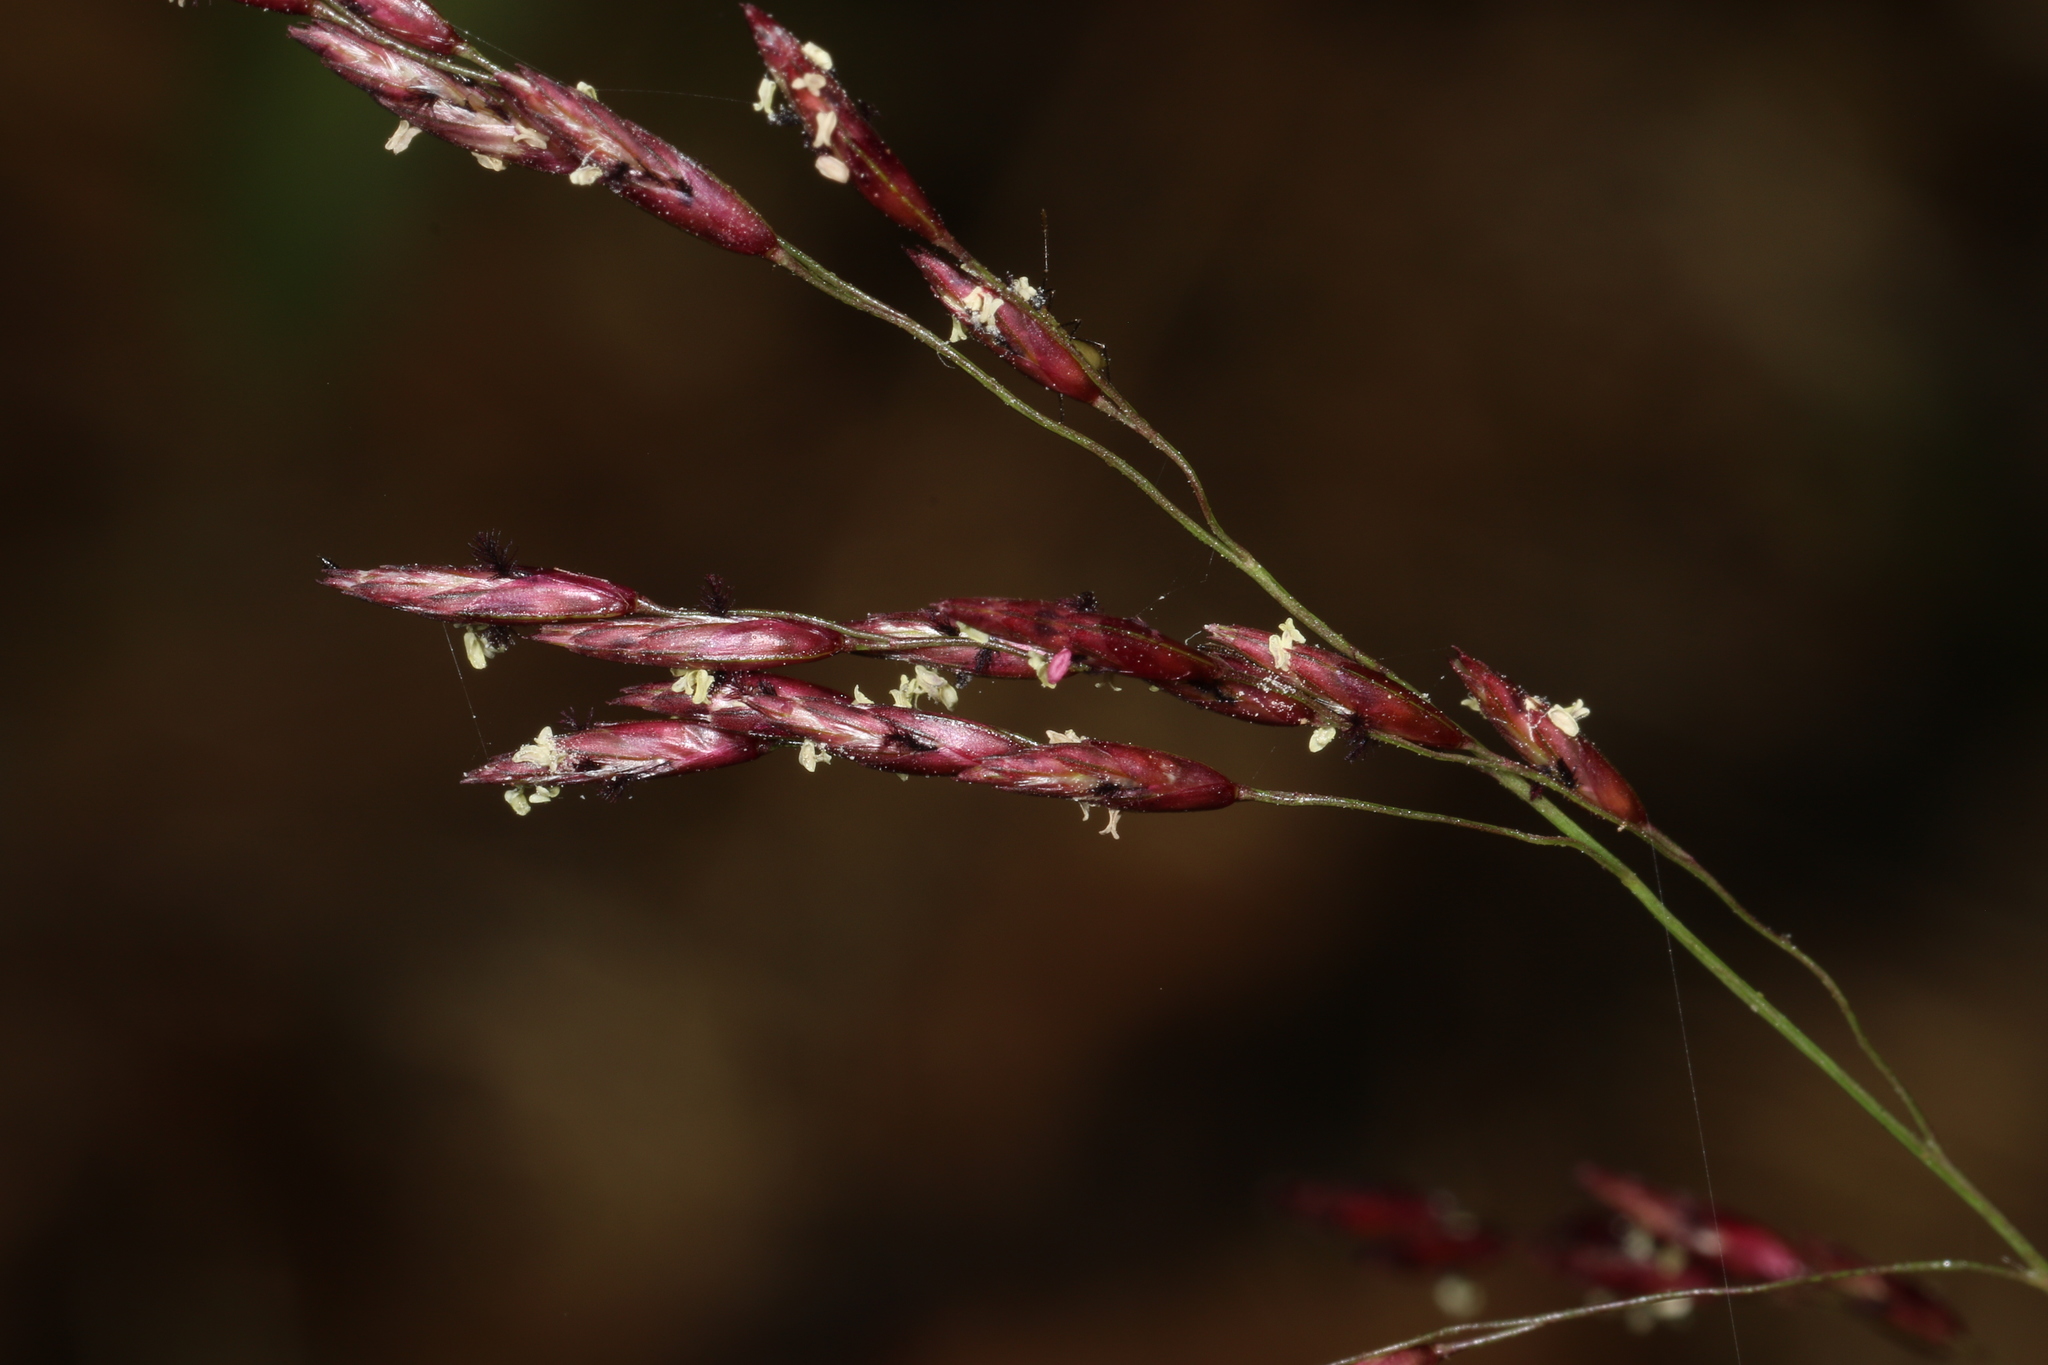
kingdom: Plantae
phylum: Tracheophyta
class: Liliopsida
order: Poales
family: Poaceae
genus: Tridens
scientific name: Tridens flavus
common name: Purpletop
